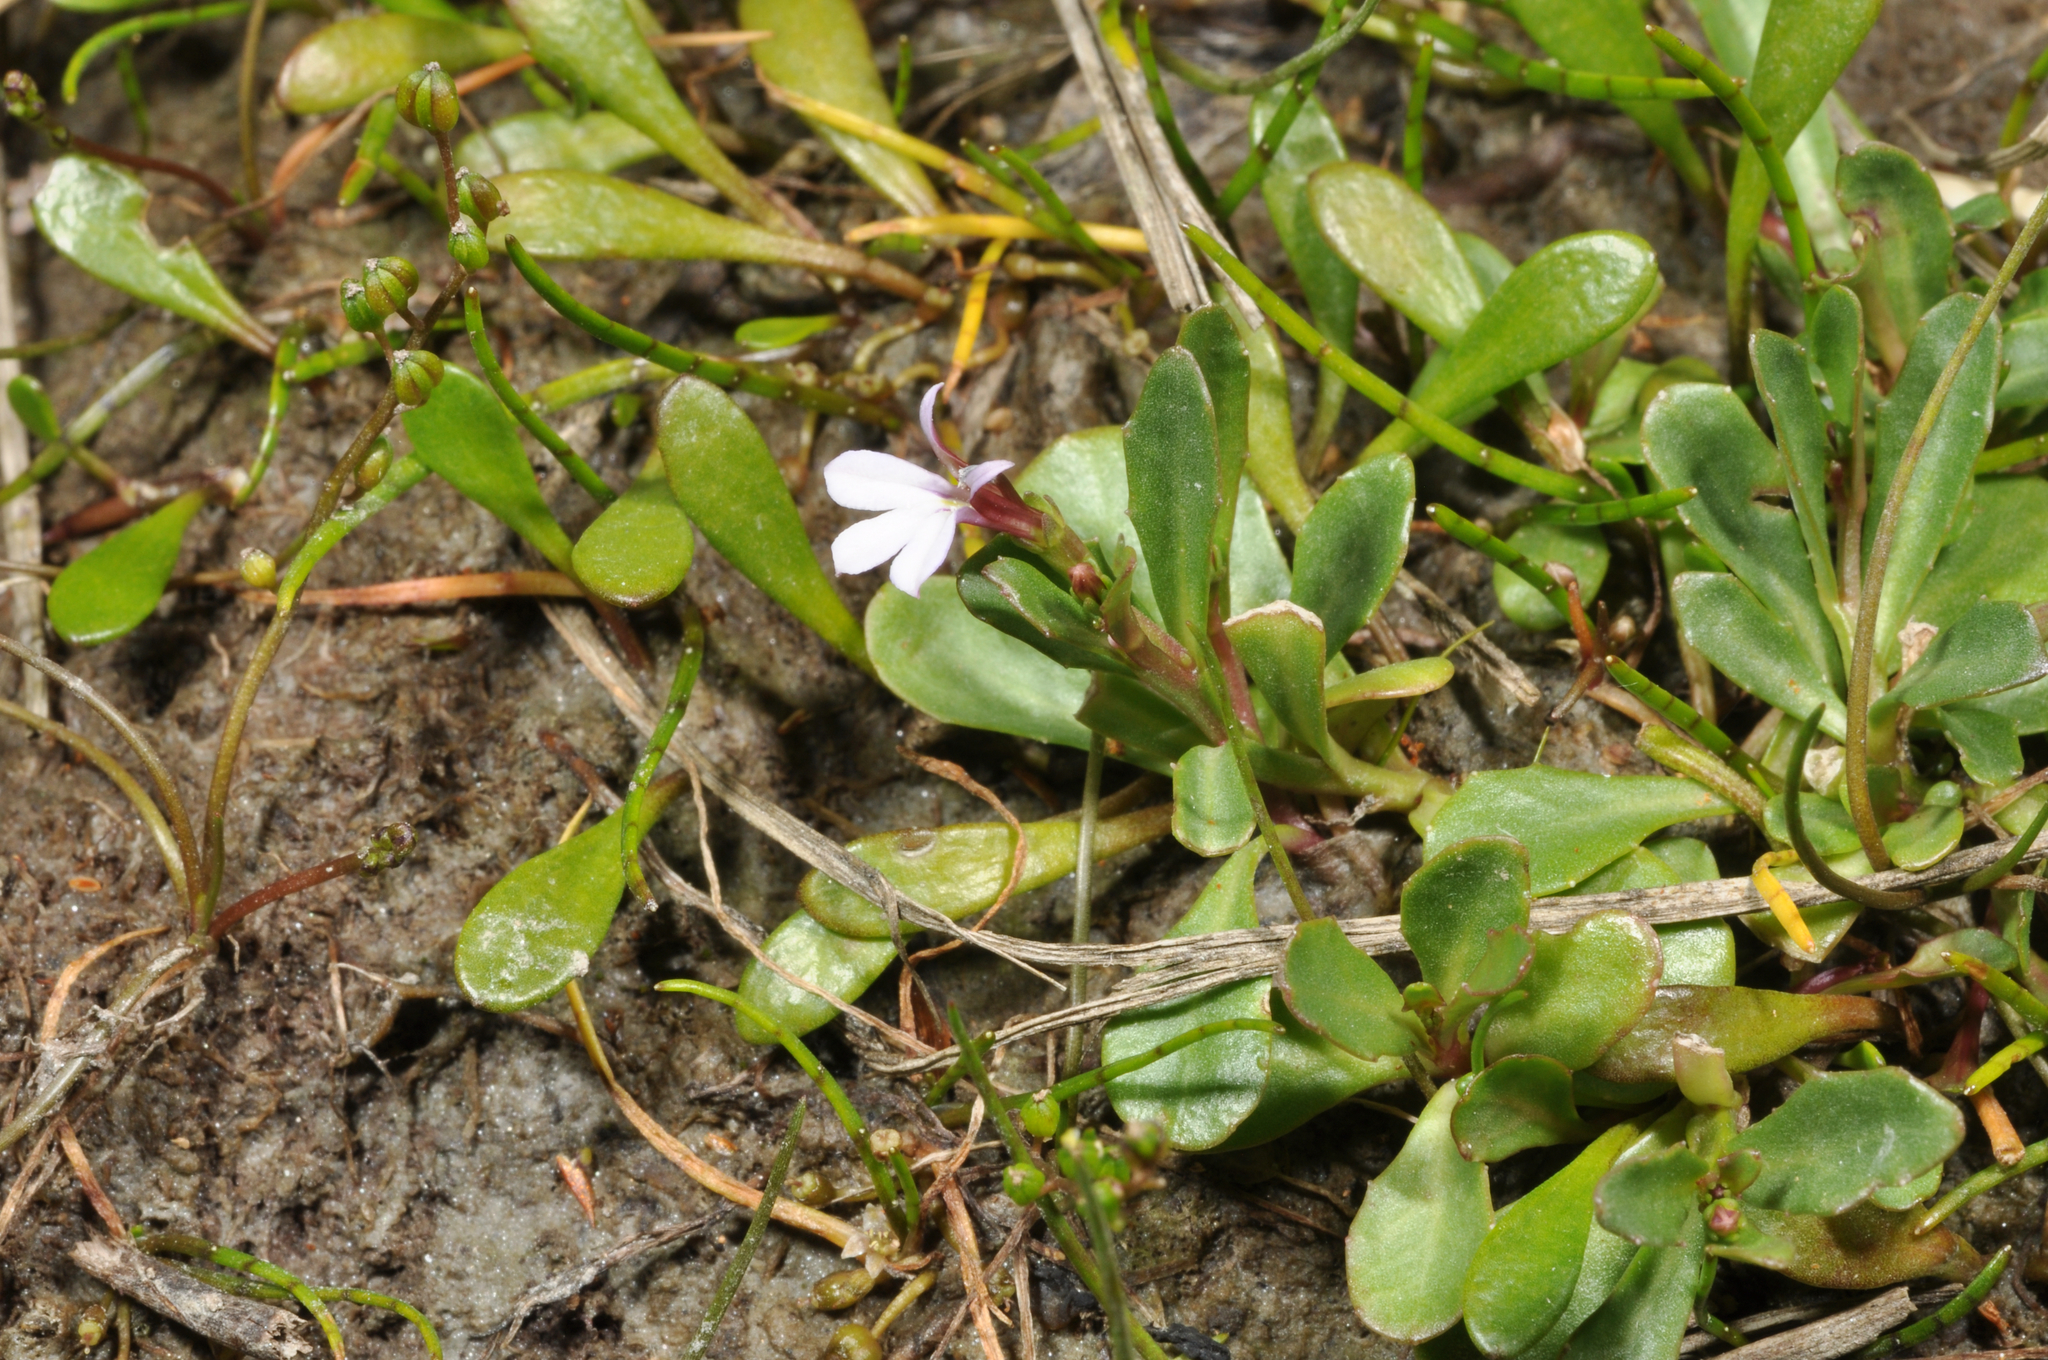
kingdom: Plantae
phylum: Tracheophyta
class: Magnoliopsida
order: Asterales
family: Campanulaceae
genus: Lobelia
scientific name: Lobelia anceps
